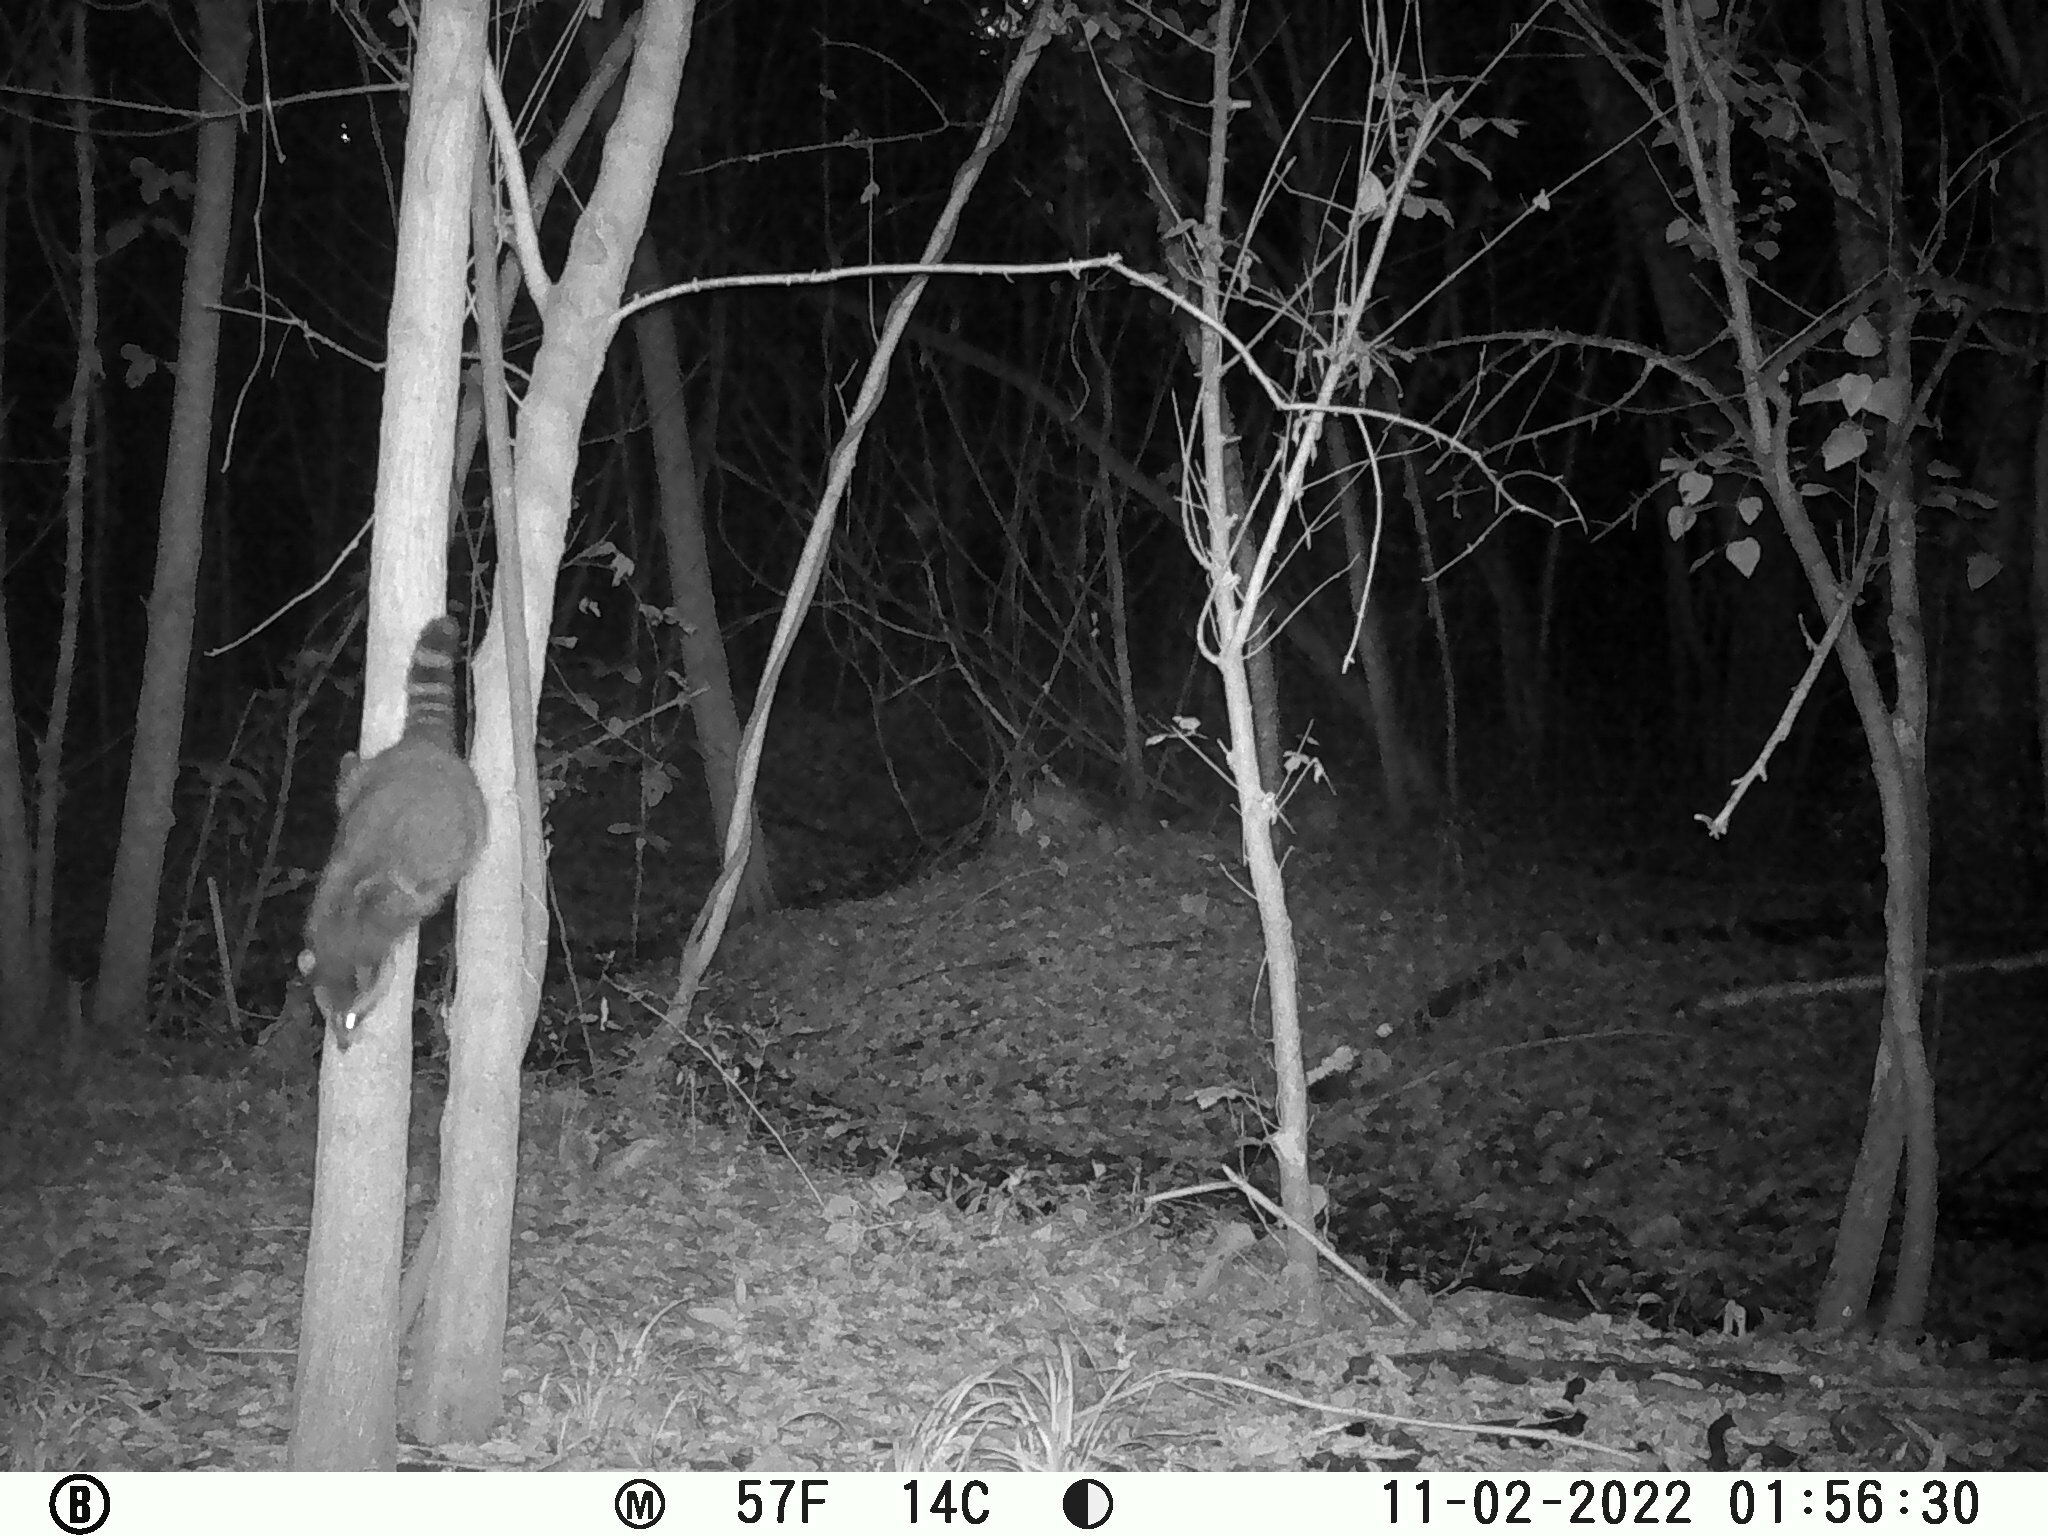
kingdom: Animalia
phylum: Chordata
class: Mammalia
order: Carnivora
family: Procyonidae
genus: Procyon
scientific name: Procyon lotor
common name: Raccoon
